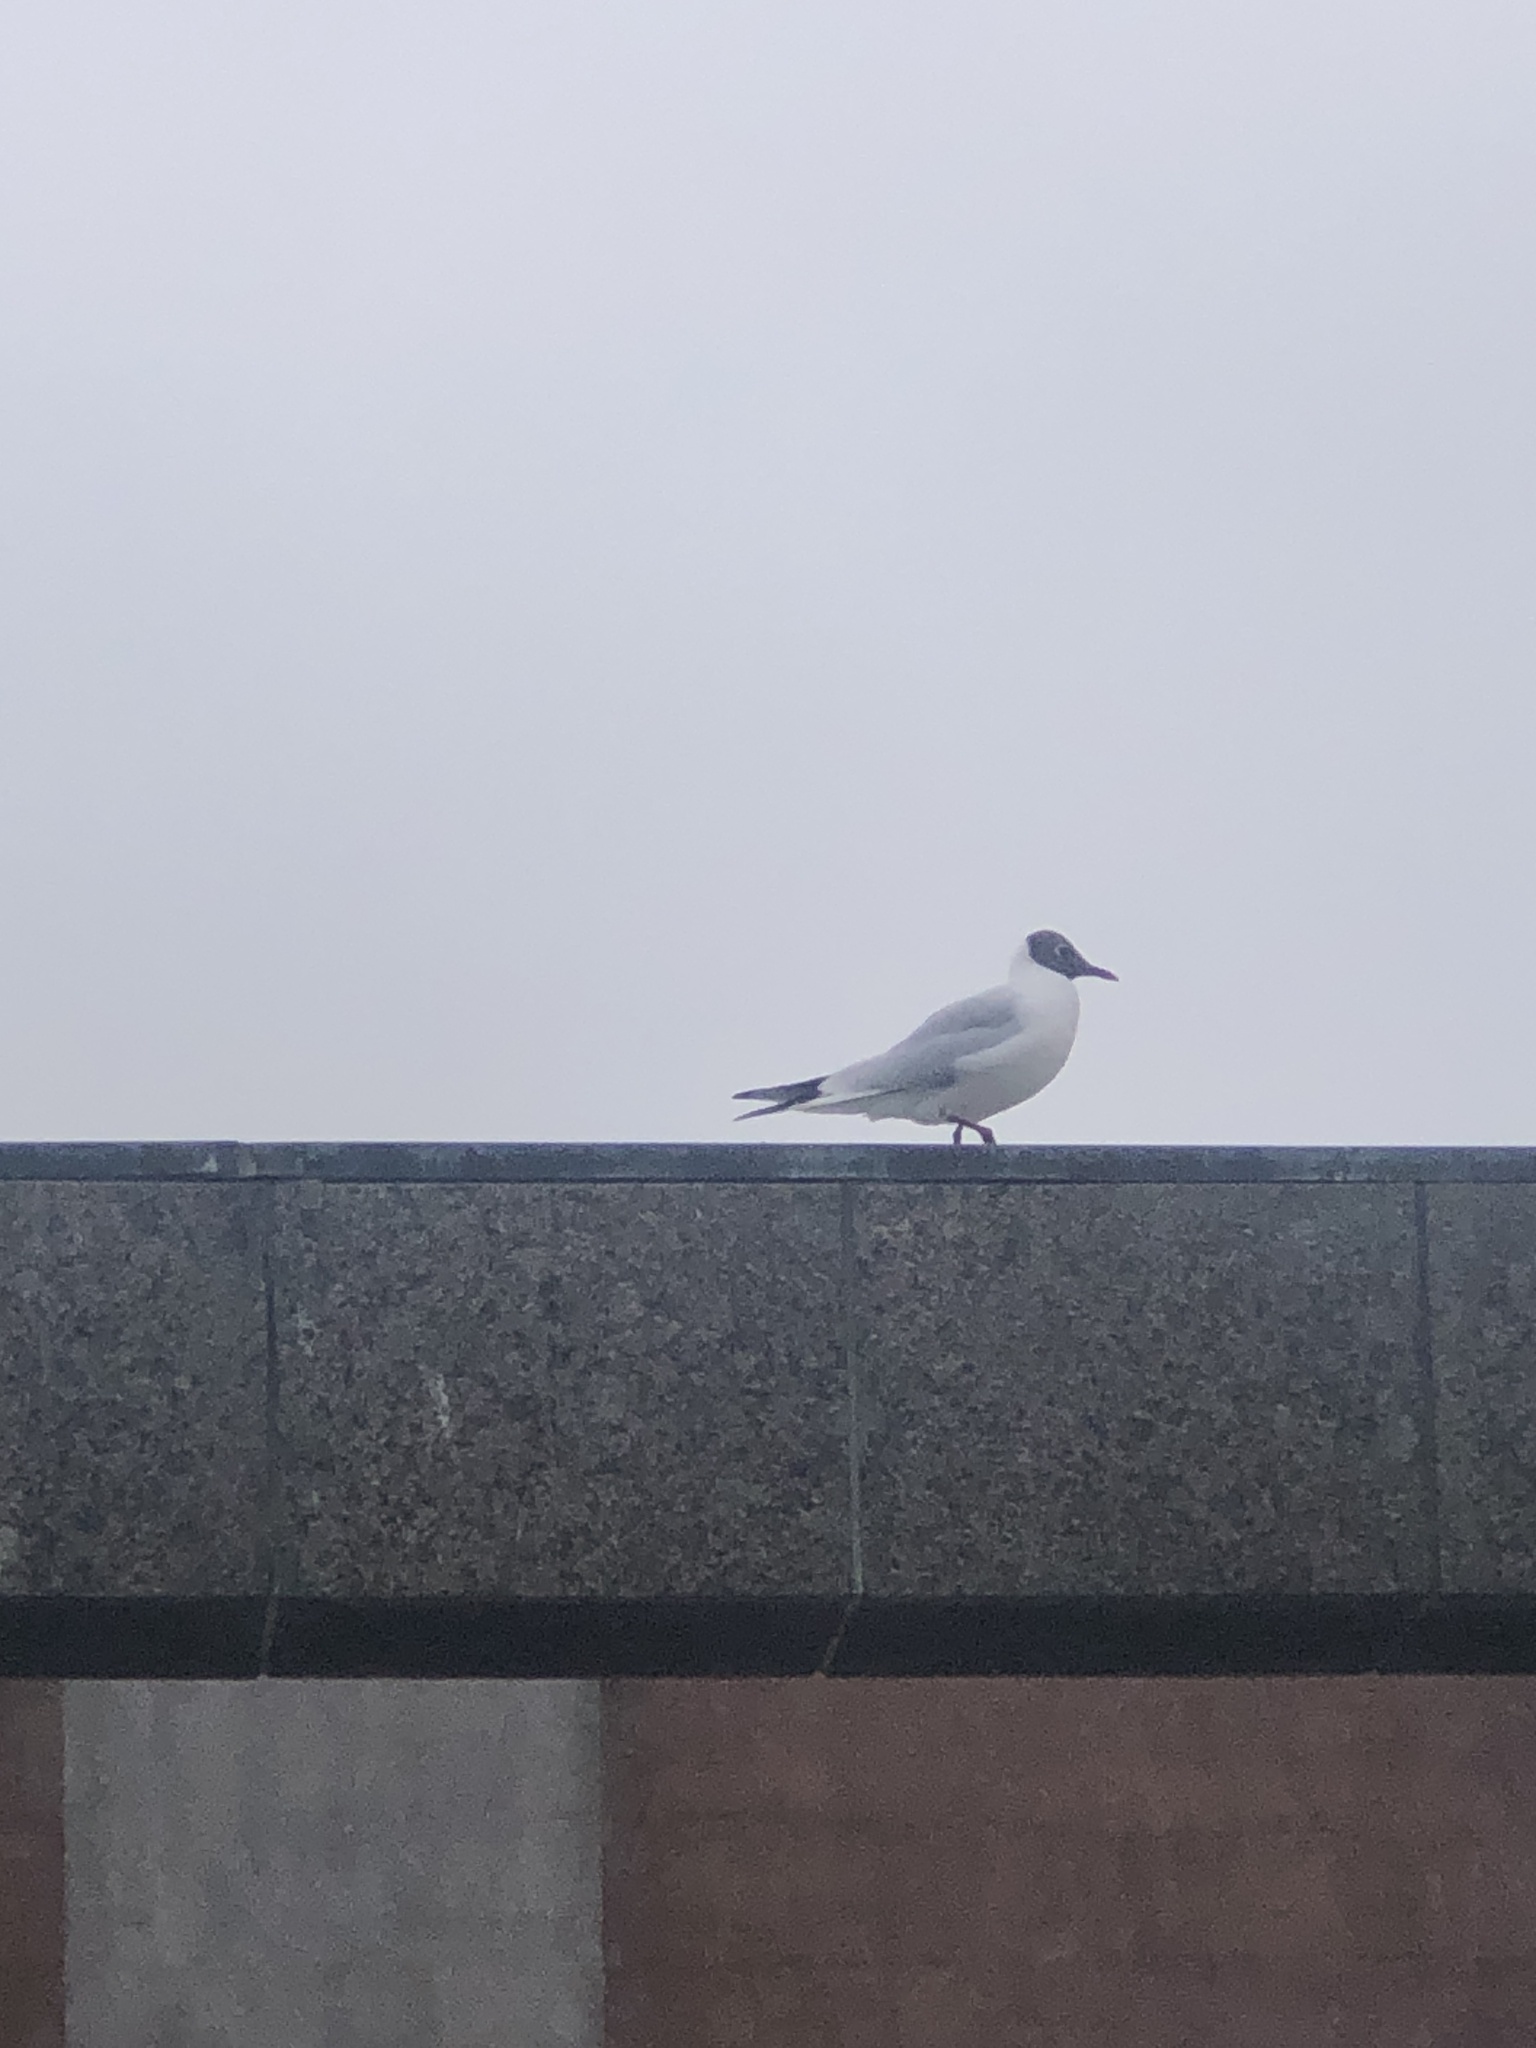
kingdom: Animalia
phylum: Chordata
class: Aves
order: Charadriiformes
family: Laridae
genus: Chroicocephalus
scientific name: Chroicocephalus ridibundus
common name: Black-headed gull
